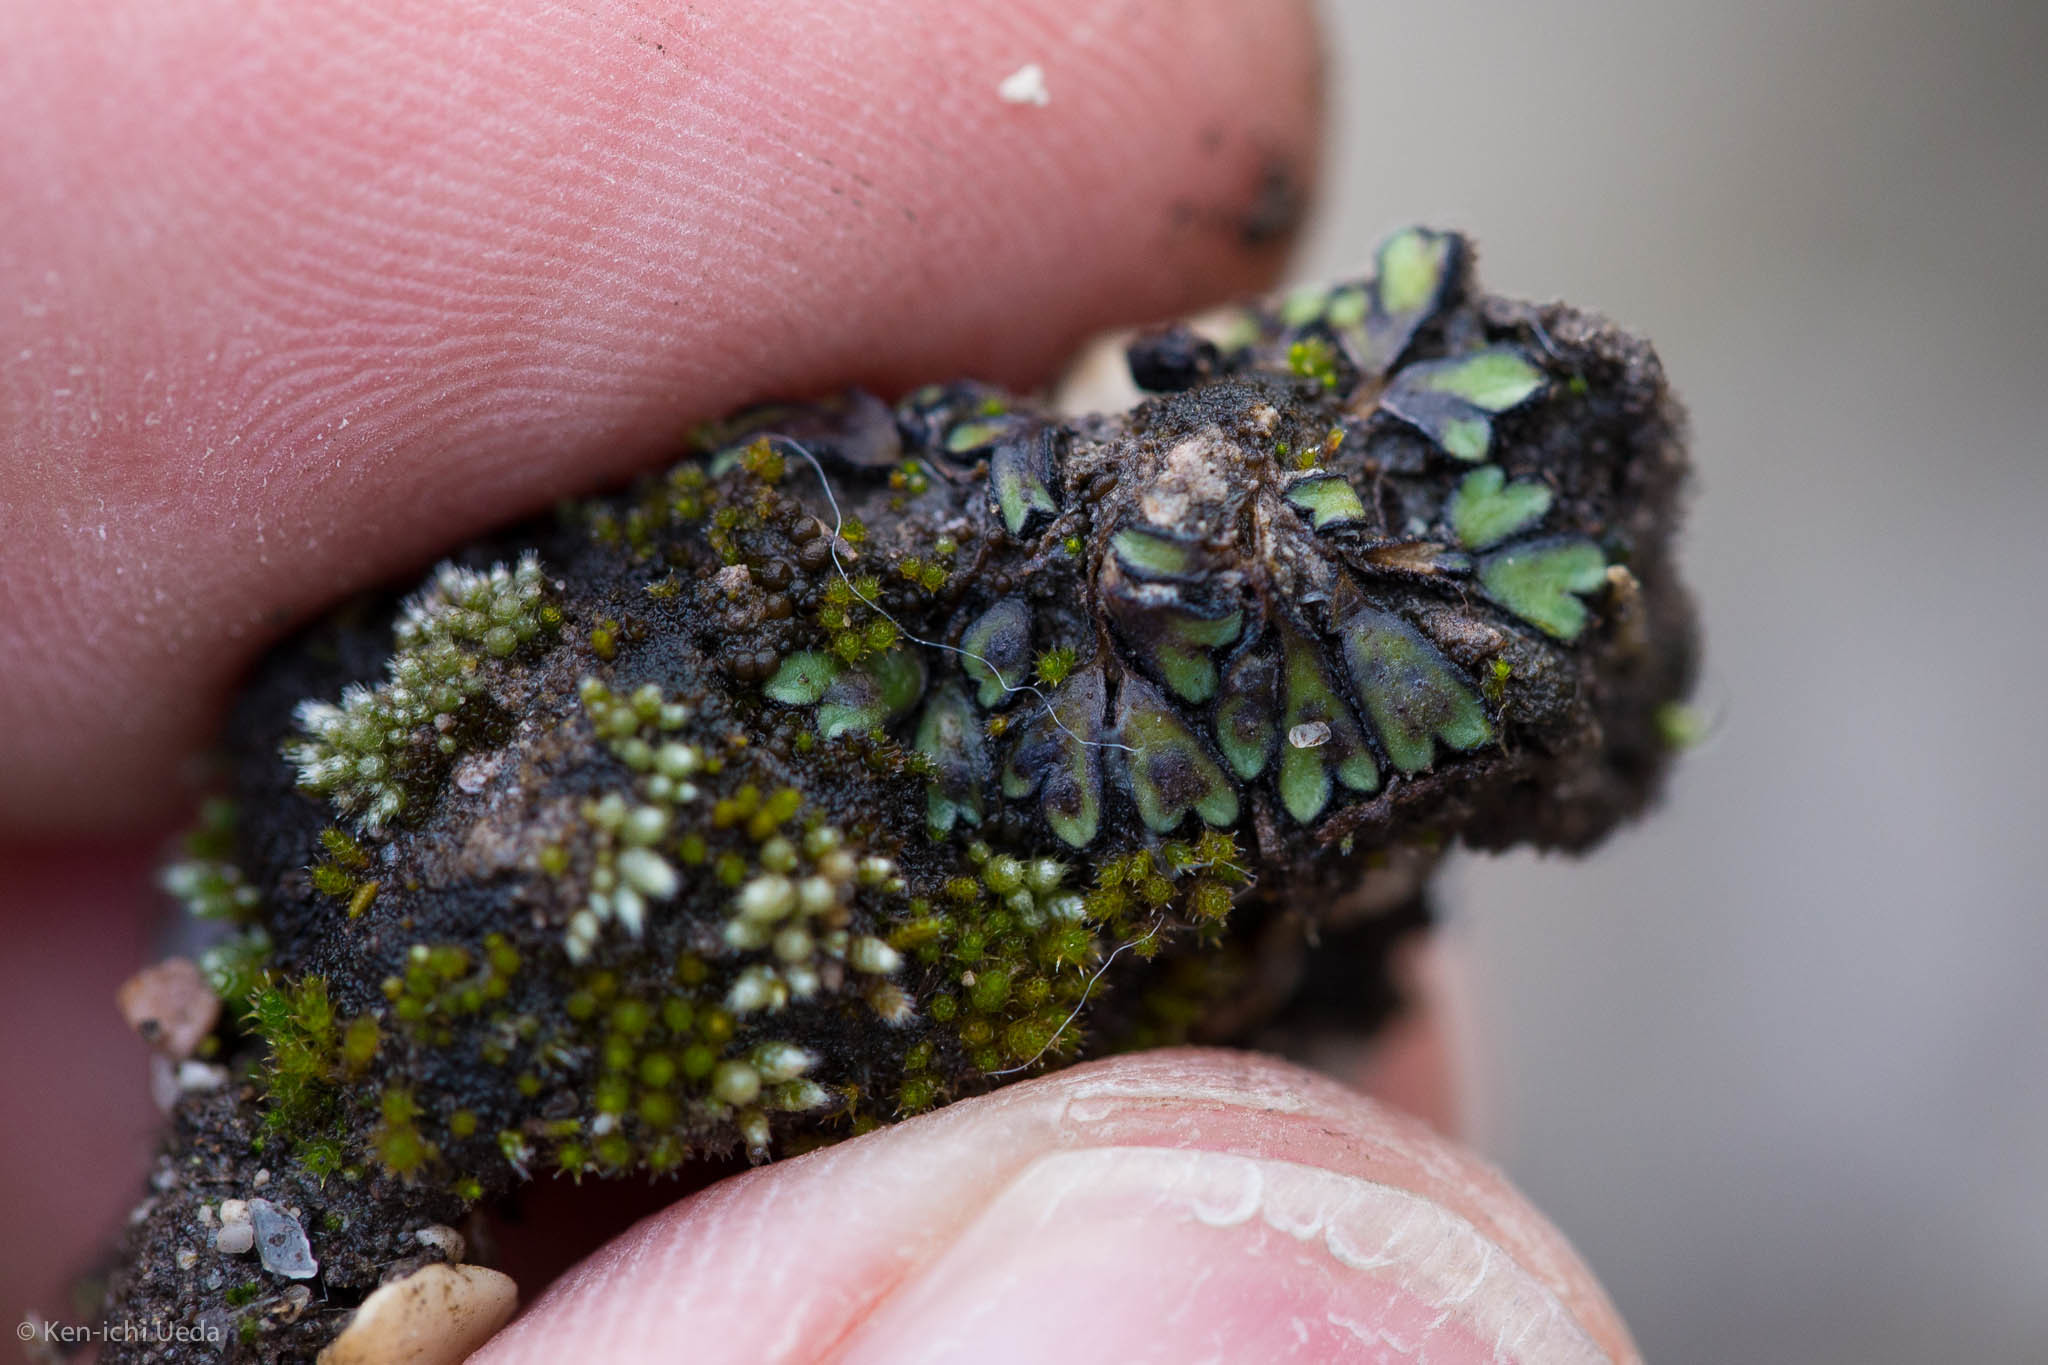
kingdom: Plantae
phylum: Bryophyta
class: Bryopsida
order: Bryales
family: Bryaceae
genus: Bryum
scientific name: Bryum argenteum
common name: Silver-moss
